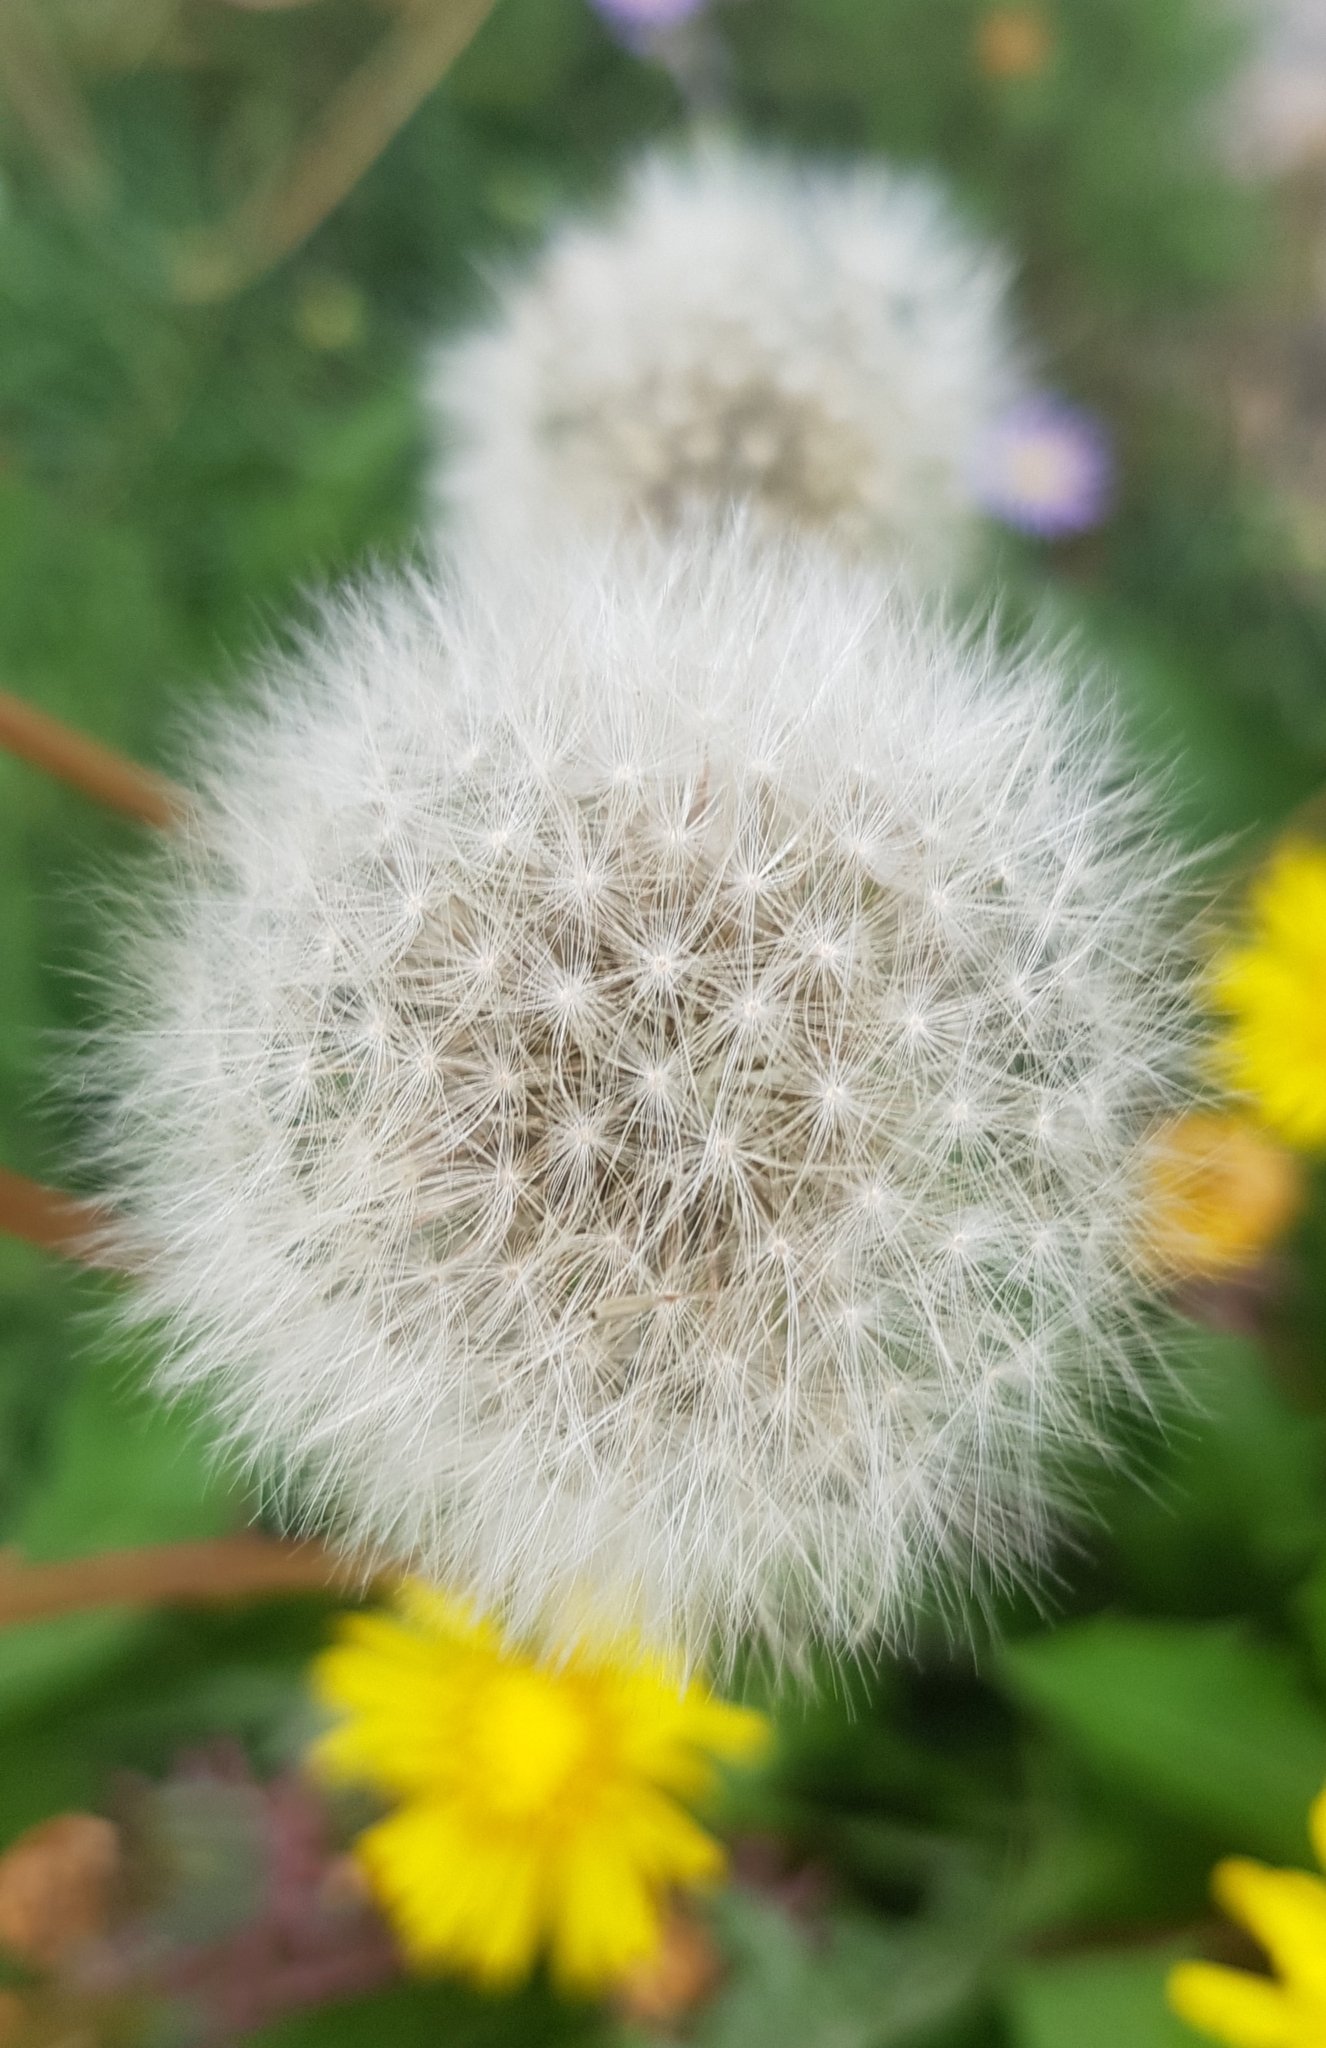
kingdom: Plantae
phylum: Tracheophyta
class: Magnoliopsida
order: Asterales
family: Asteraceae
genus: Taraxacum
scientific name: Taraxacum officinale
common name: Common dandelion
